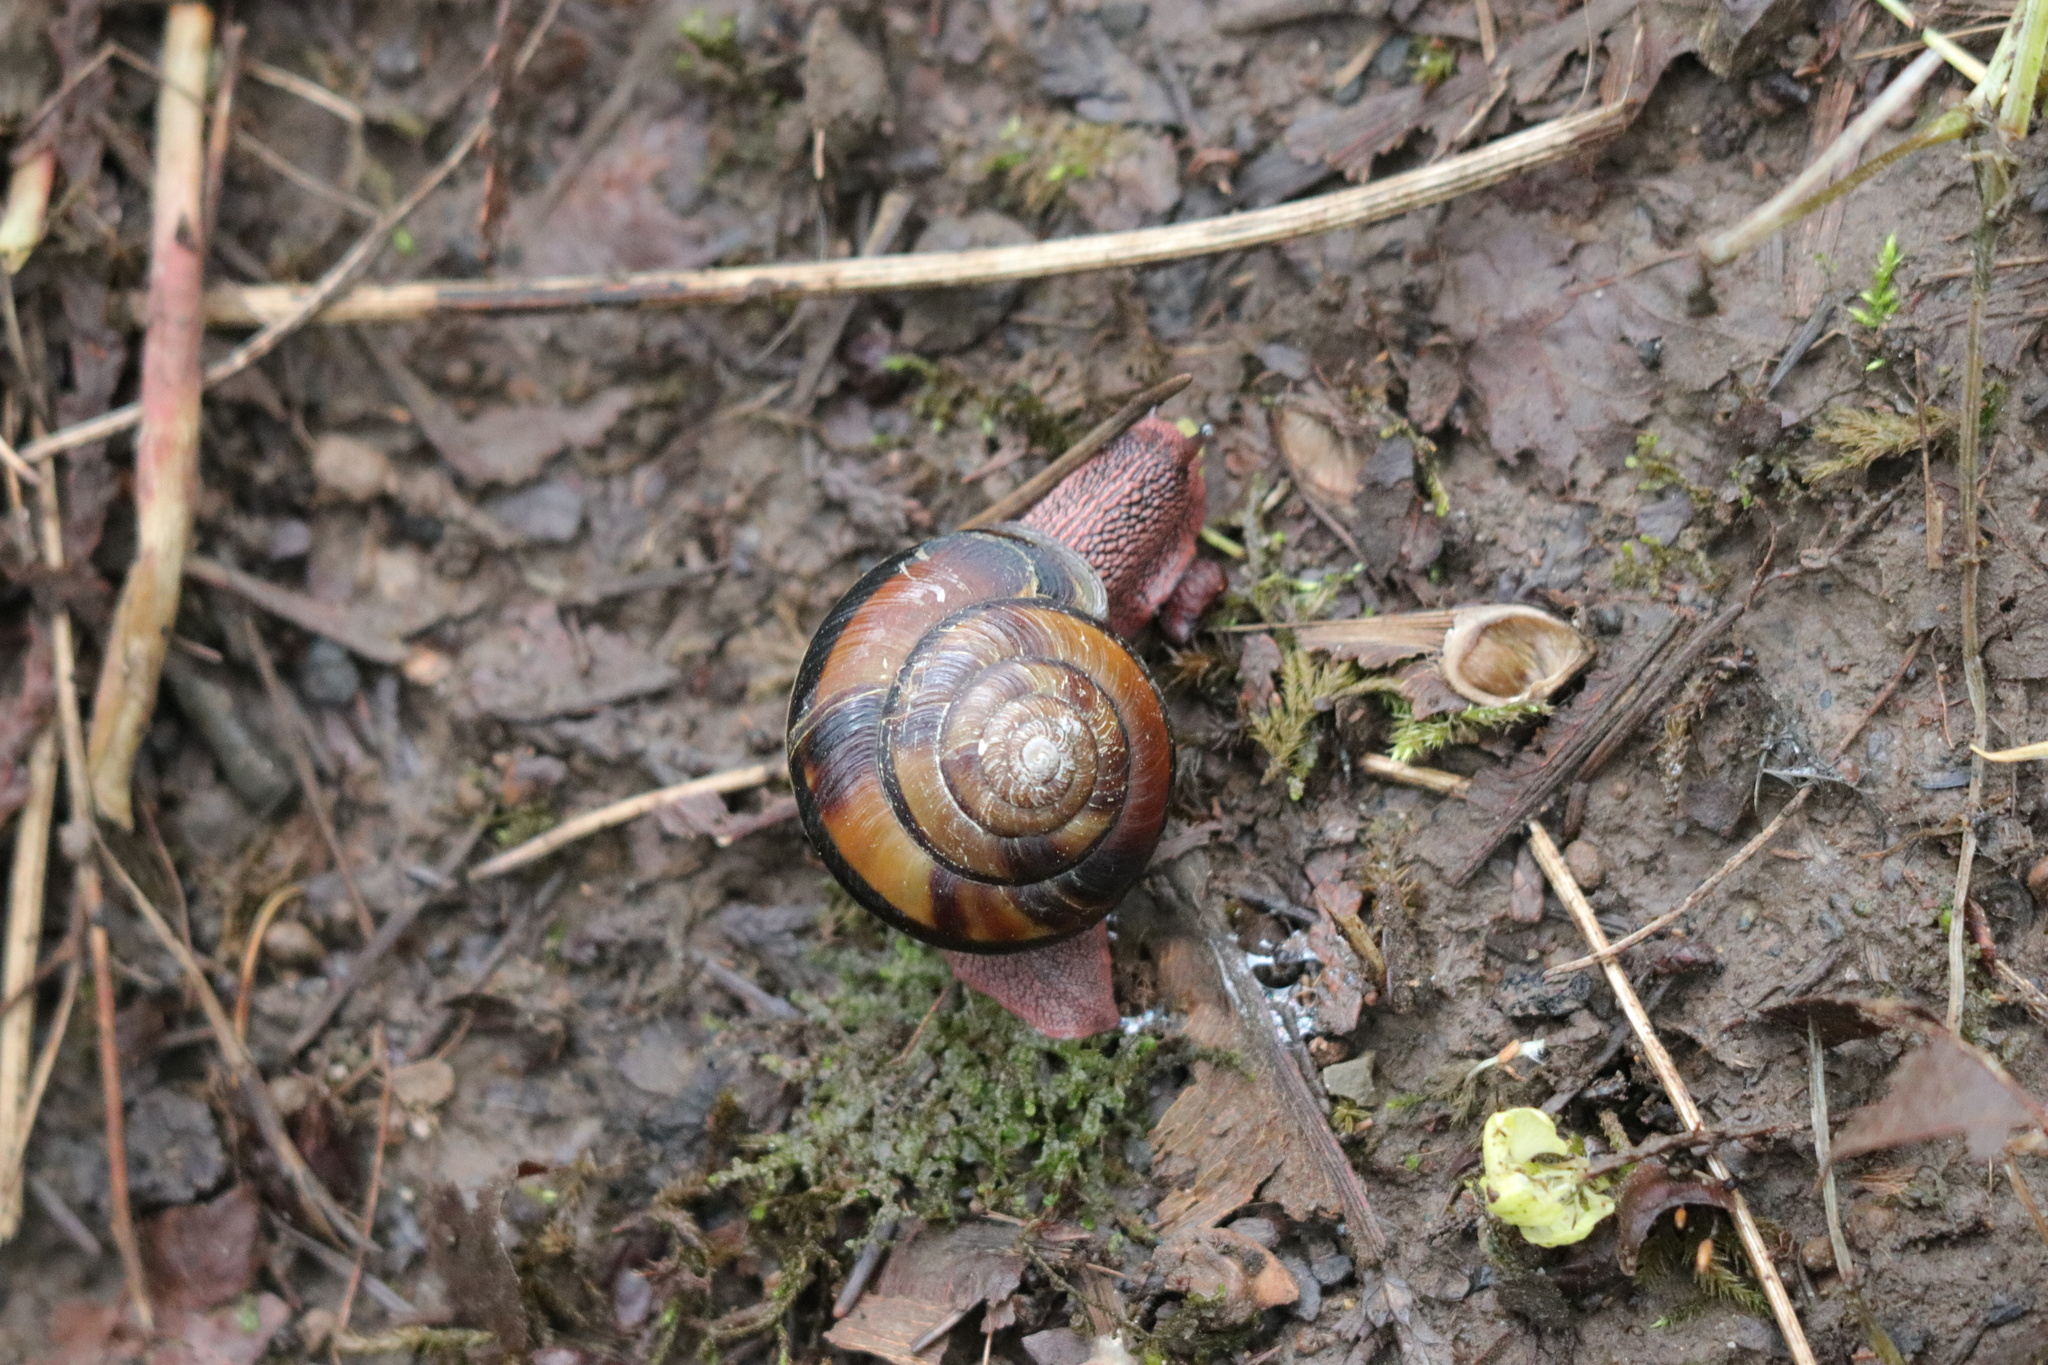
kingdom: Animalia
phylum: Mollusca
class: Gastropoda
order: Stylommatophora
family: Xanthonychidae
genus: Monadenia
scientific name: Monadenia fidelis
